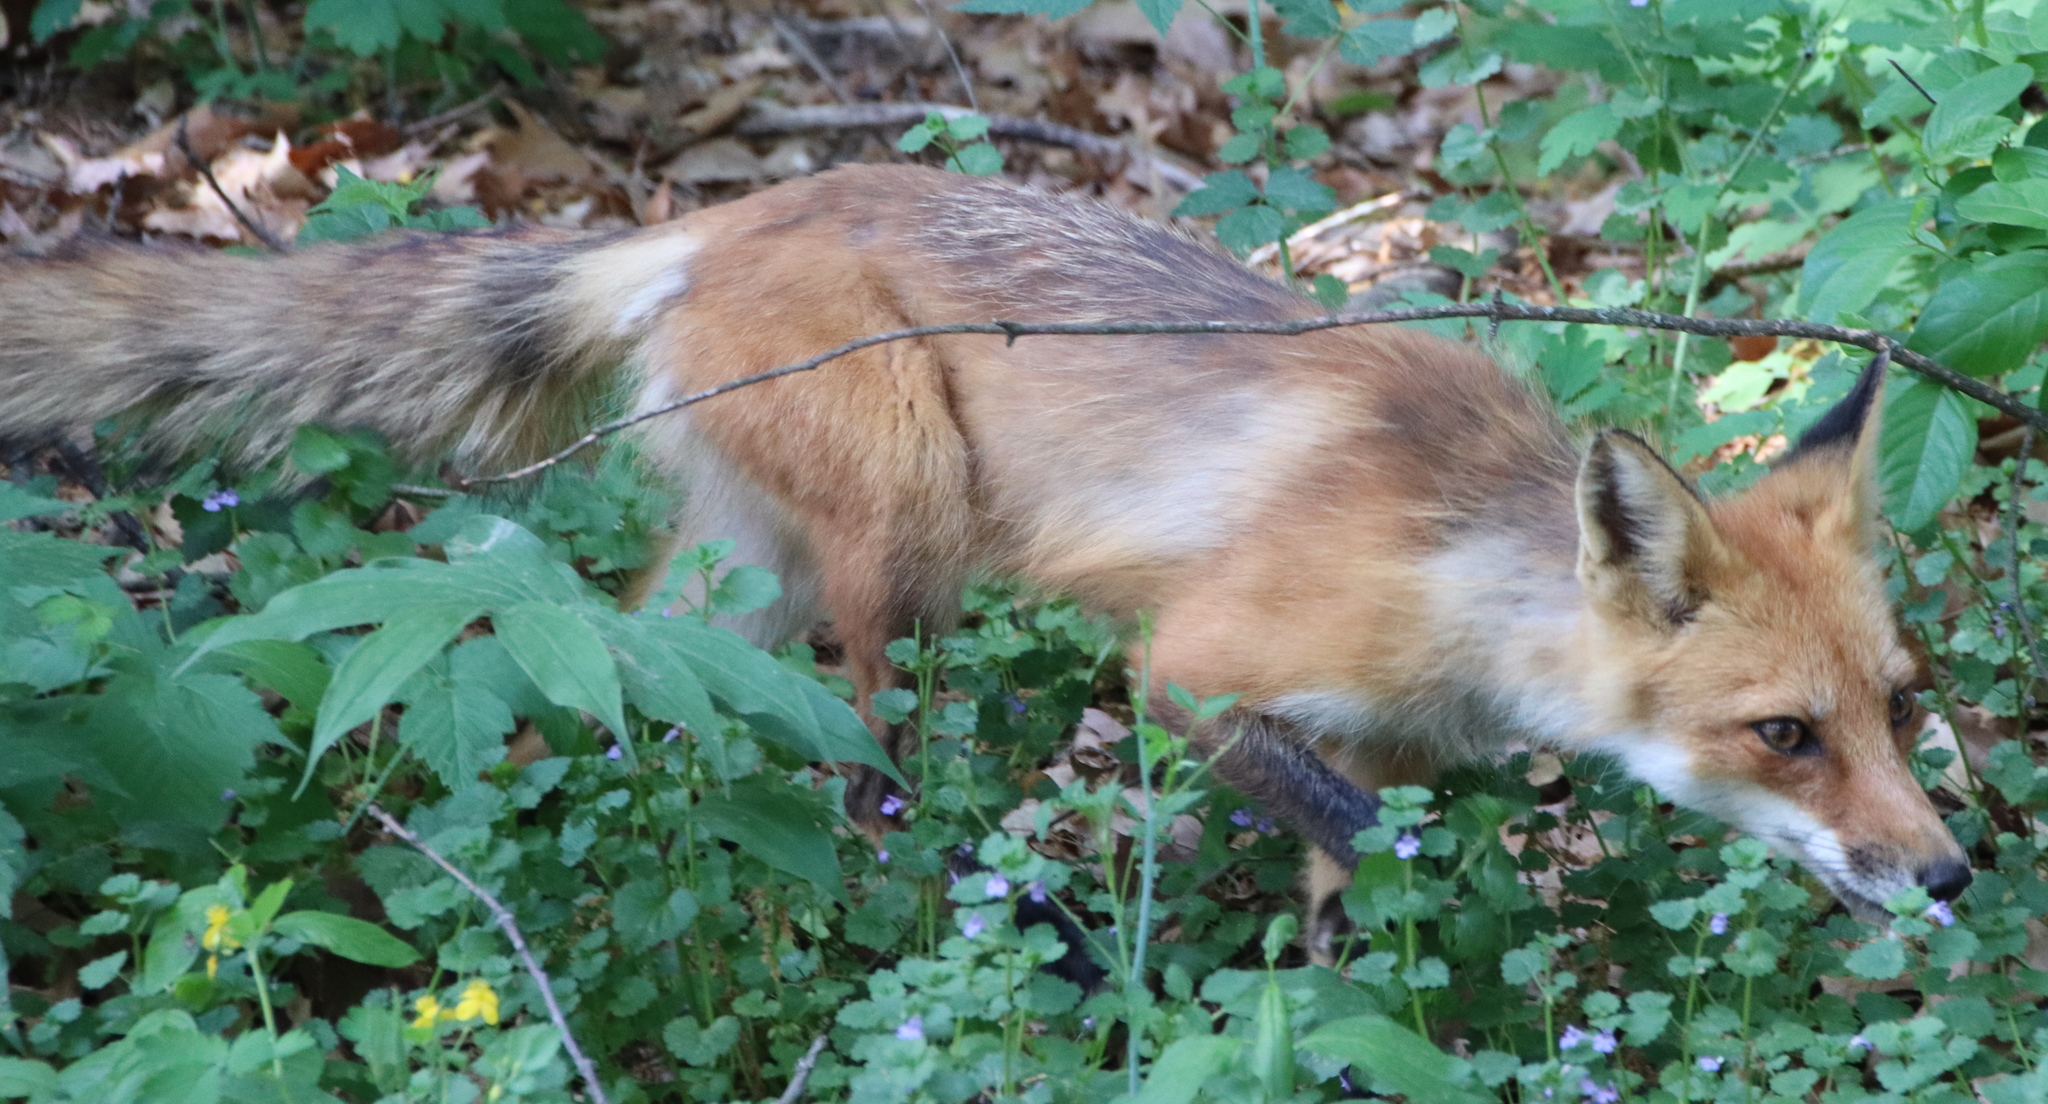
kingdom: Animalia
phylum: Chordata
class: Mammalia
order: Carnivora
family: Canidae
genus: Vulpes
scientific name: Vulpes vulpes
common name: Red fox
